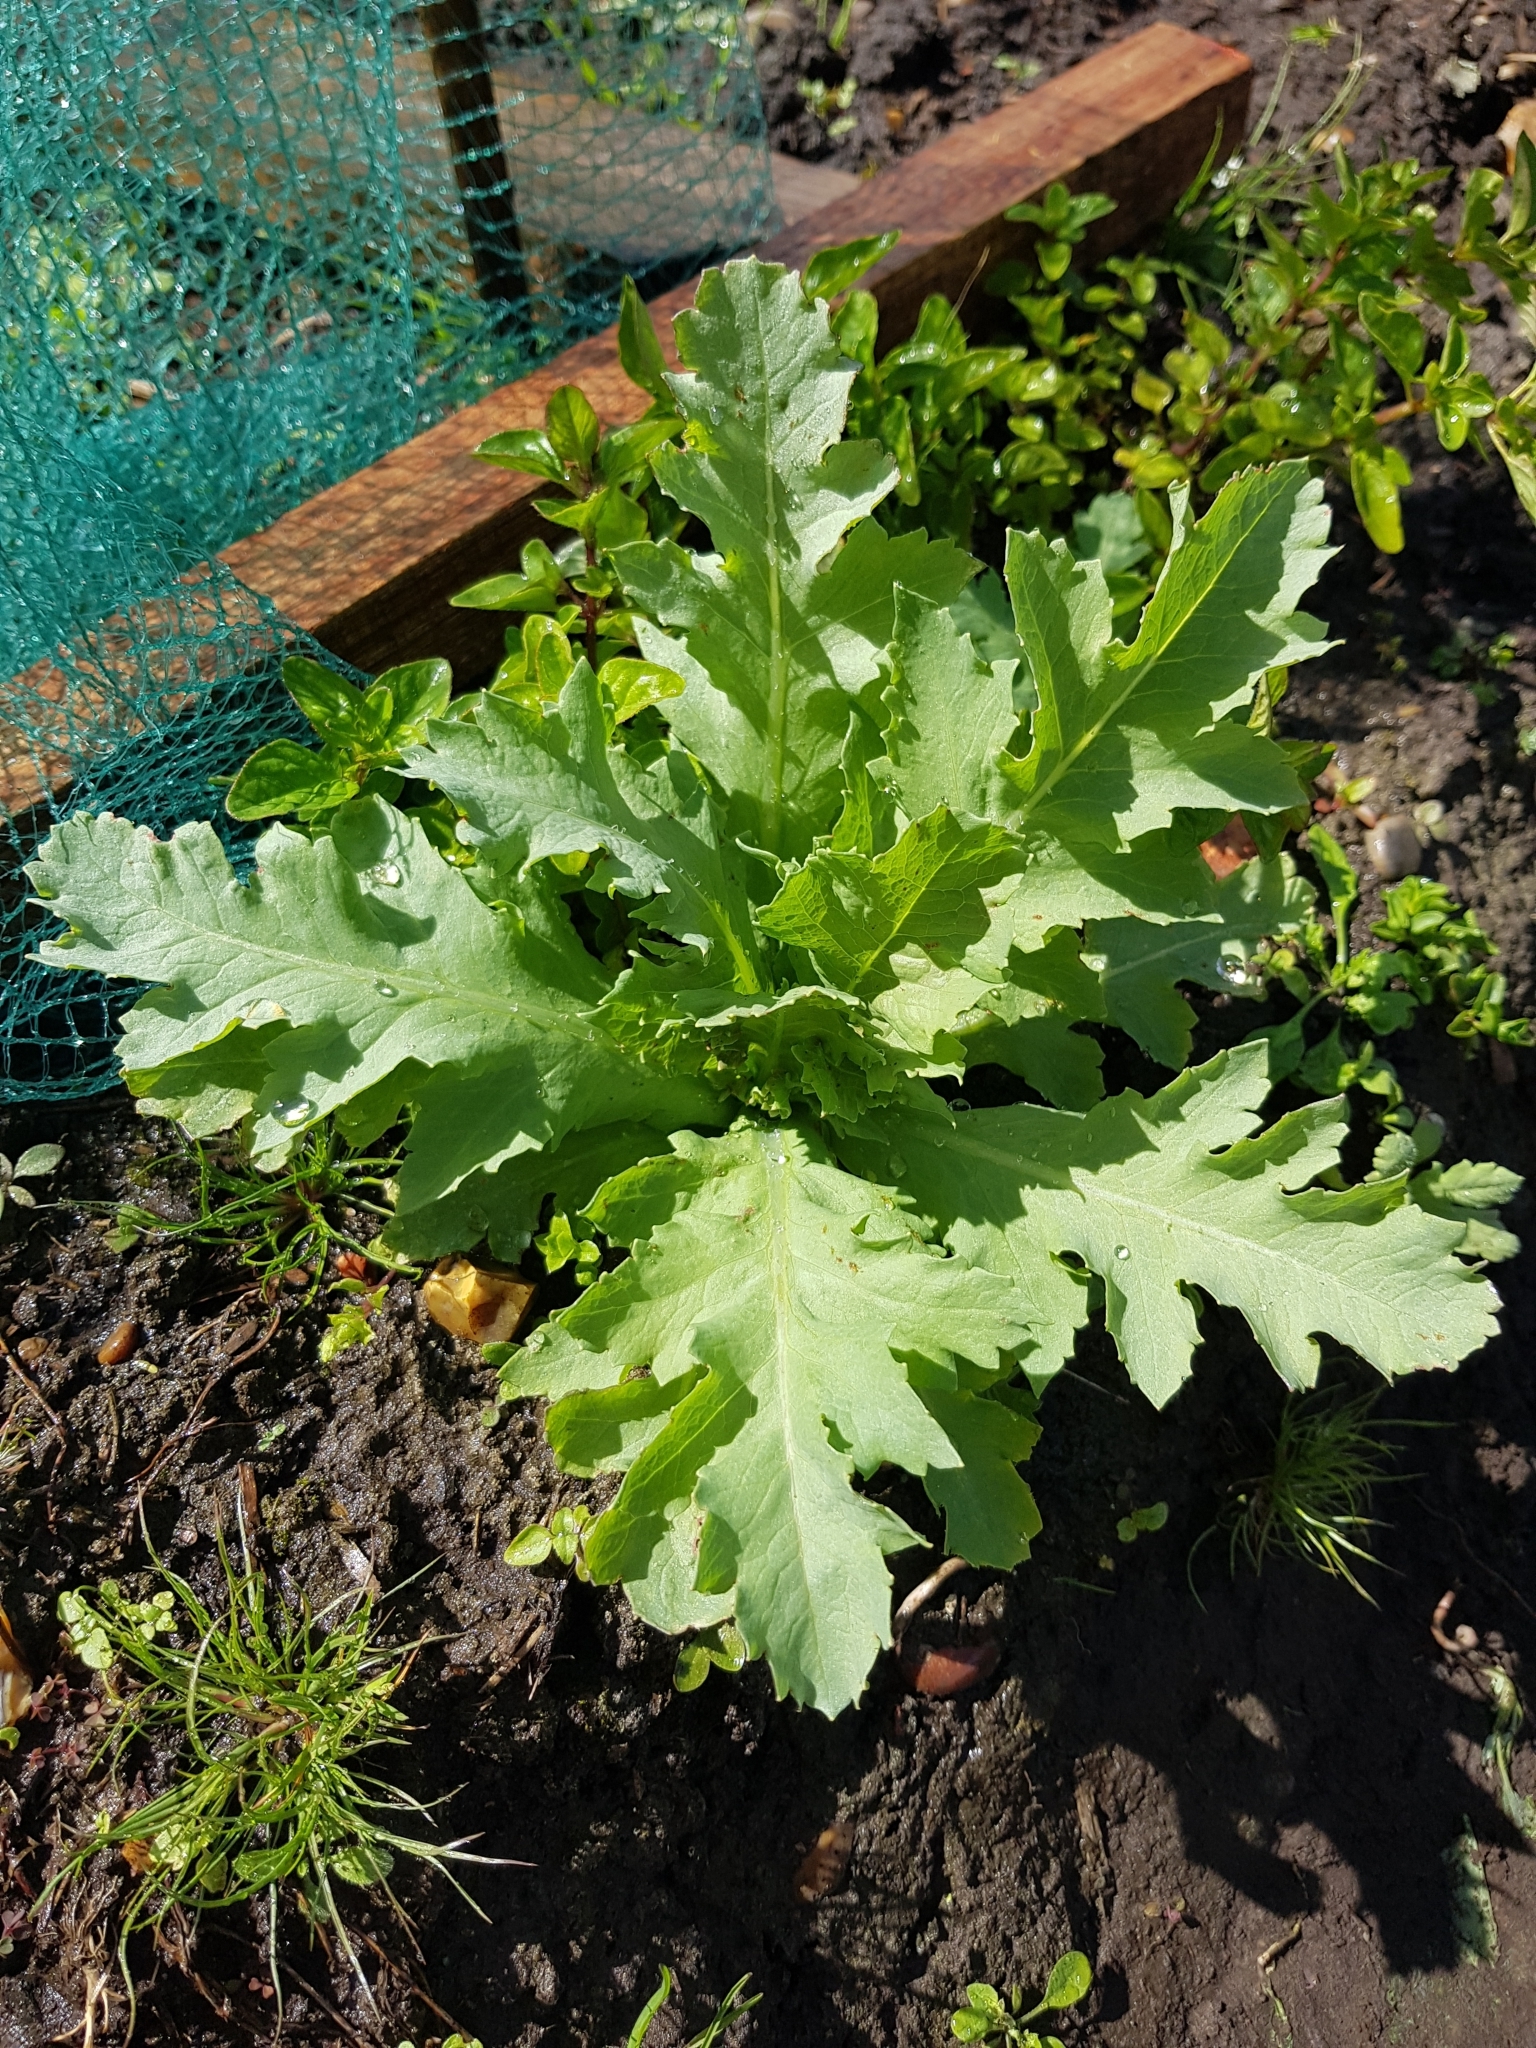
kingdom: Plantae
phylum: Tracheophyta
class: Magnoliopsida
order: Ranunculales
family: Papaveraceae
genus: Papaver
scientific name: Papaver somniferum
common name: Opium poppy
